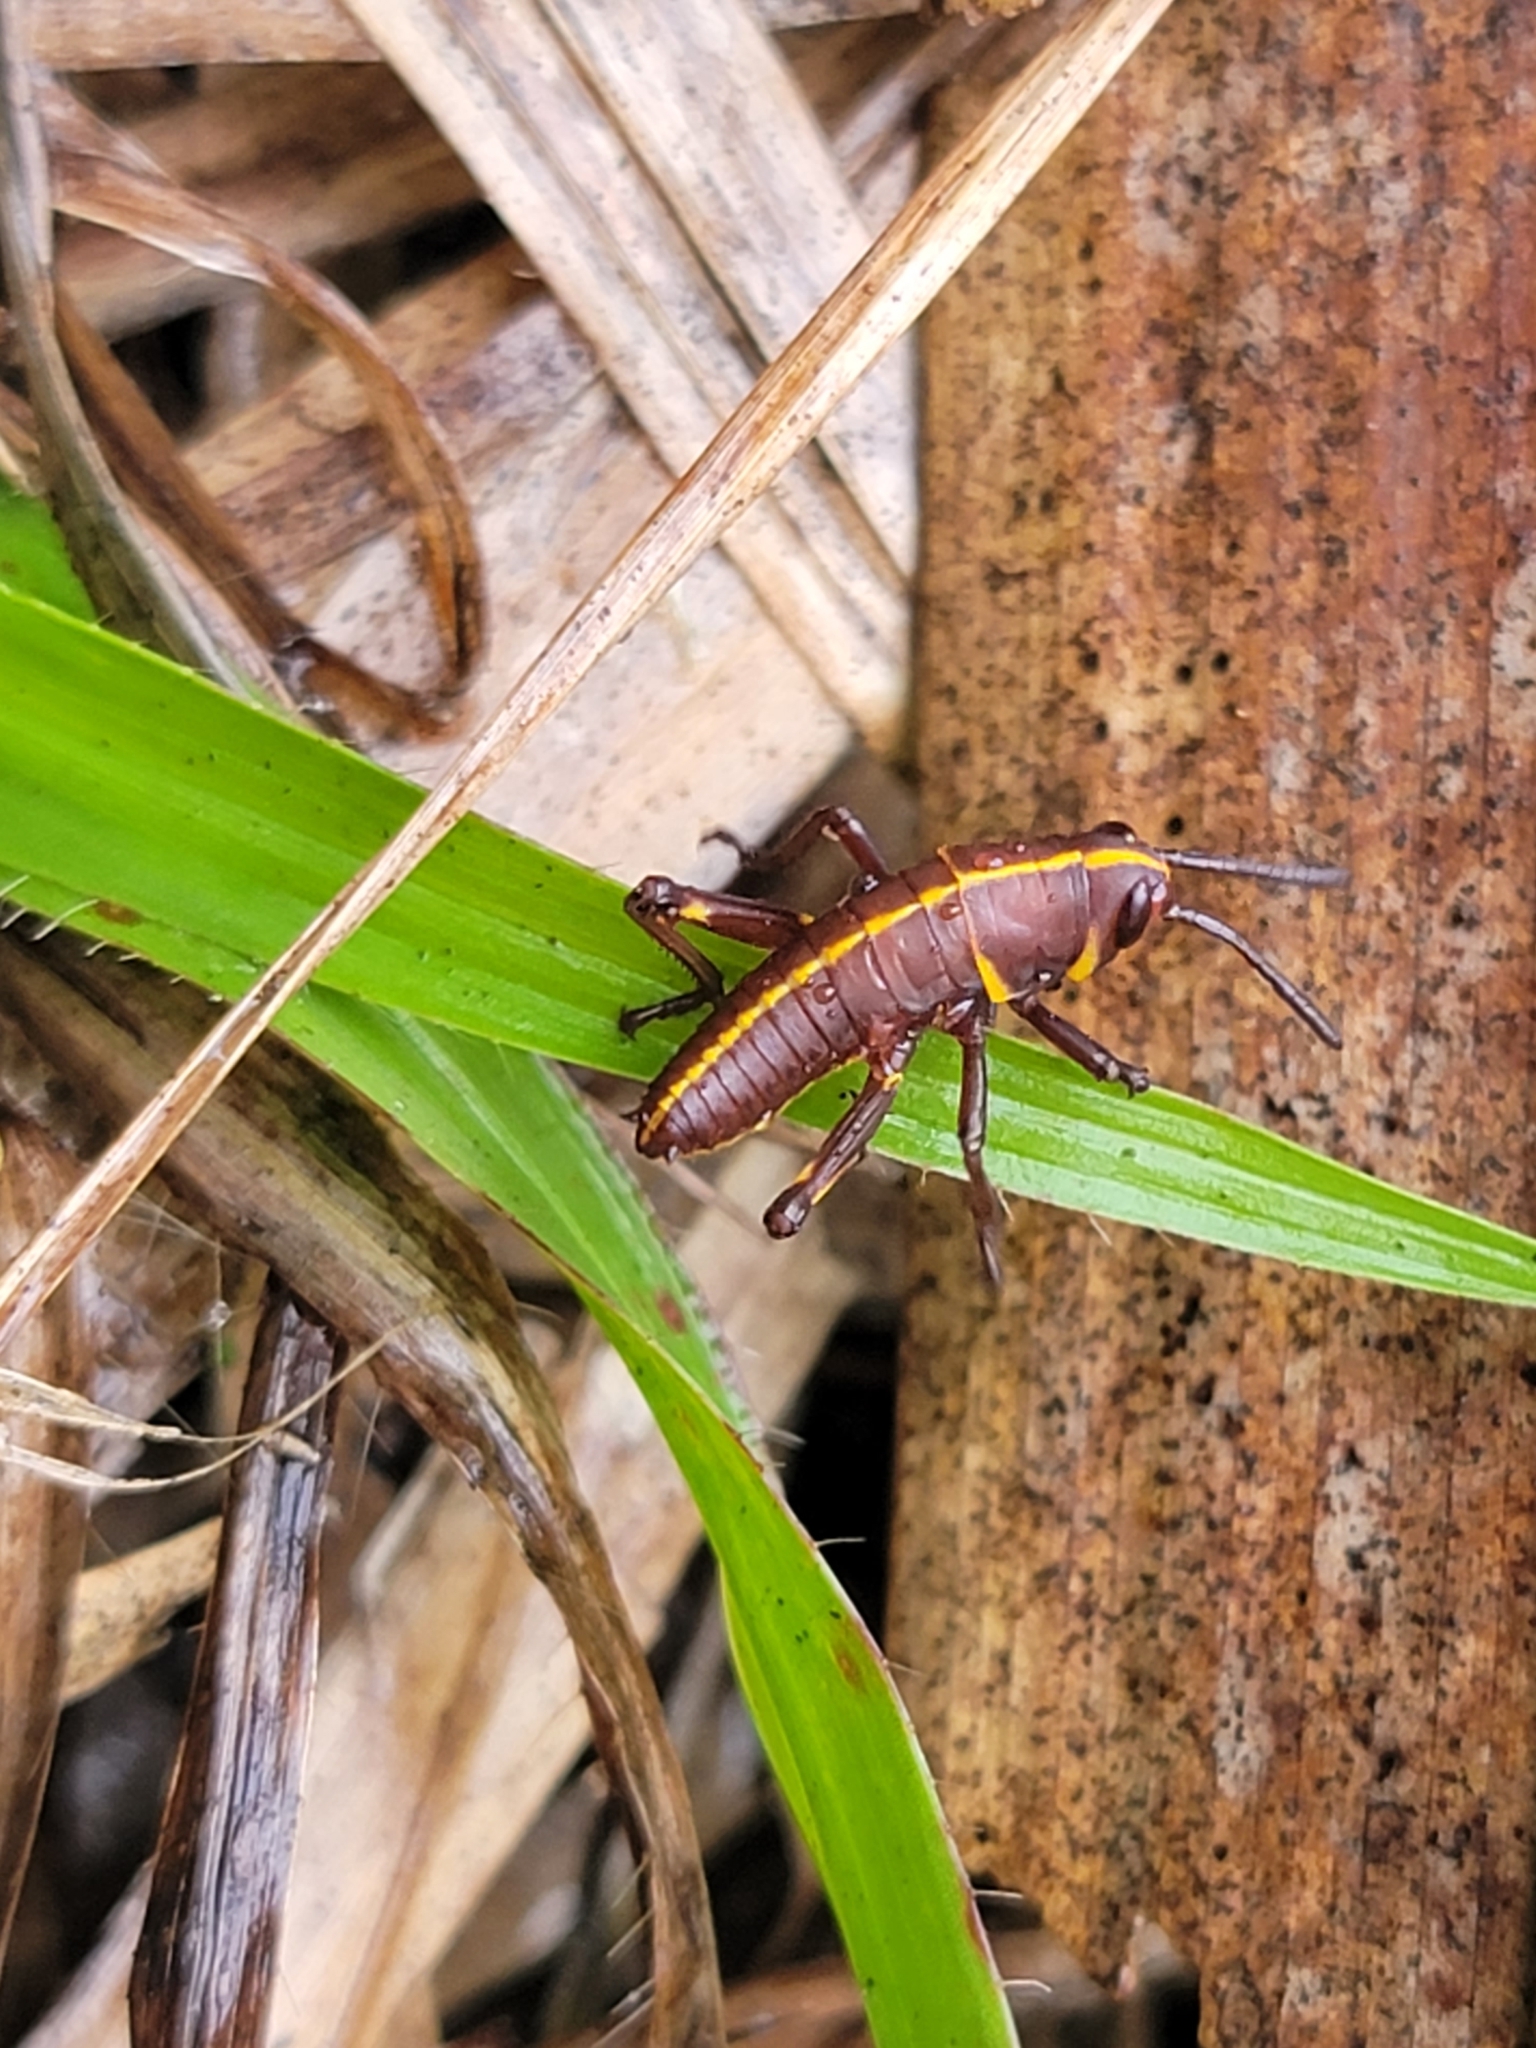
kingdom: Animalia
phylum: Arthropoda
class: Insecta
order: Orthoptera
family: Romaleidae
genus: Romalea
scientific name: Romalea microptera
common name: Eastern lubber grasshopper
